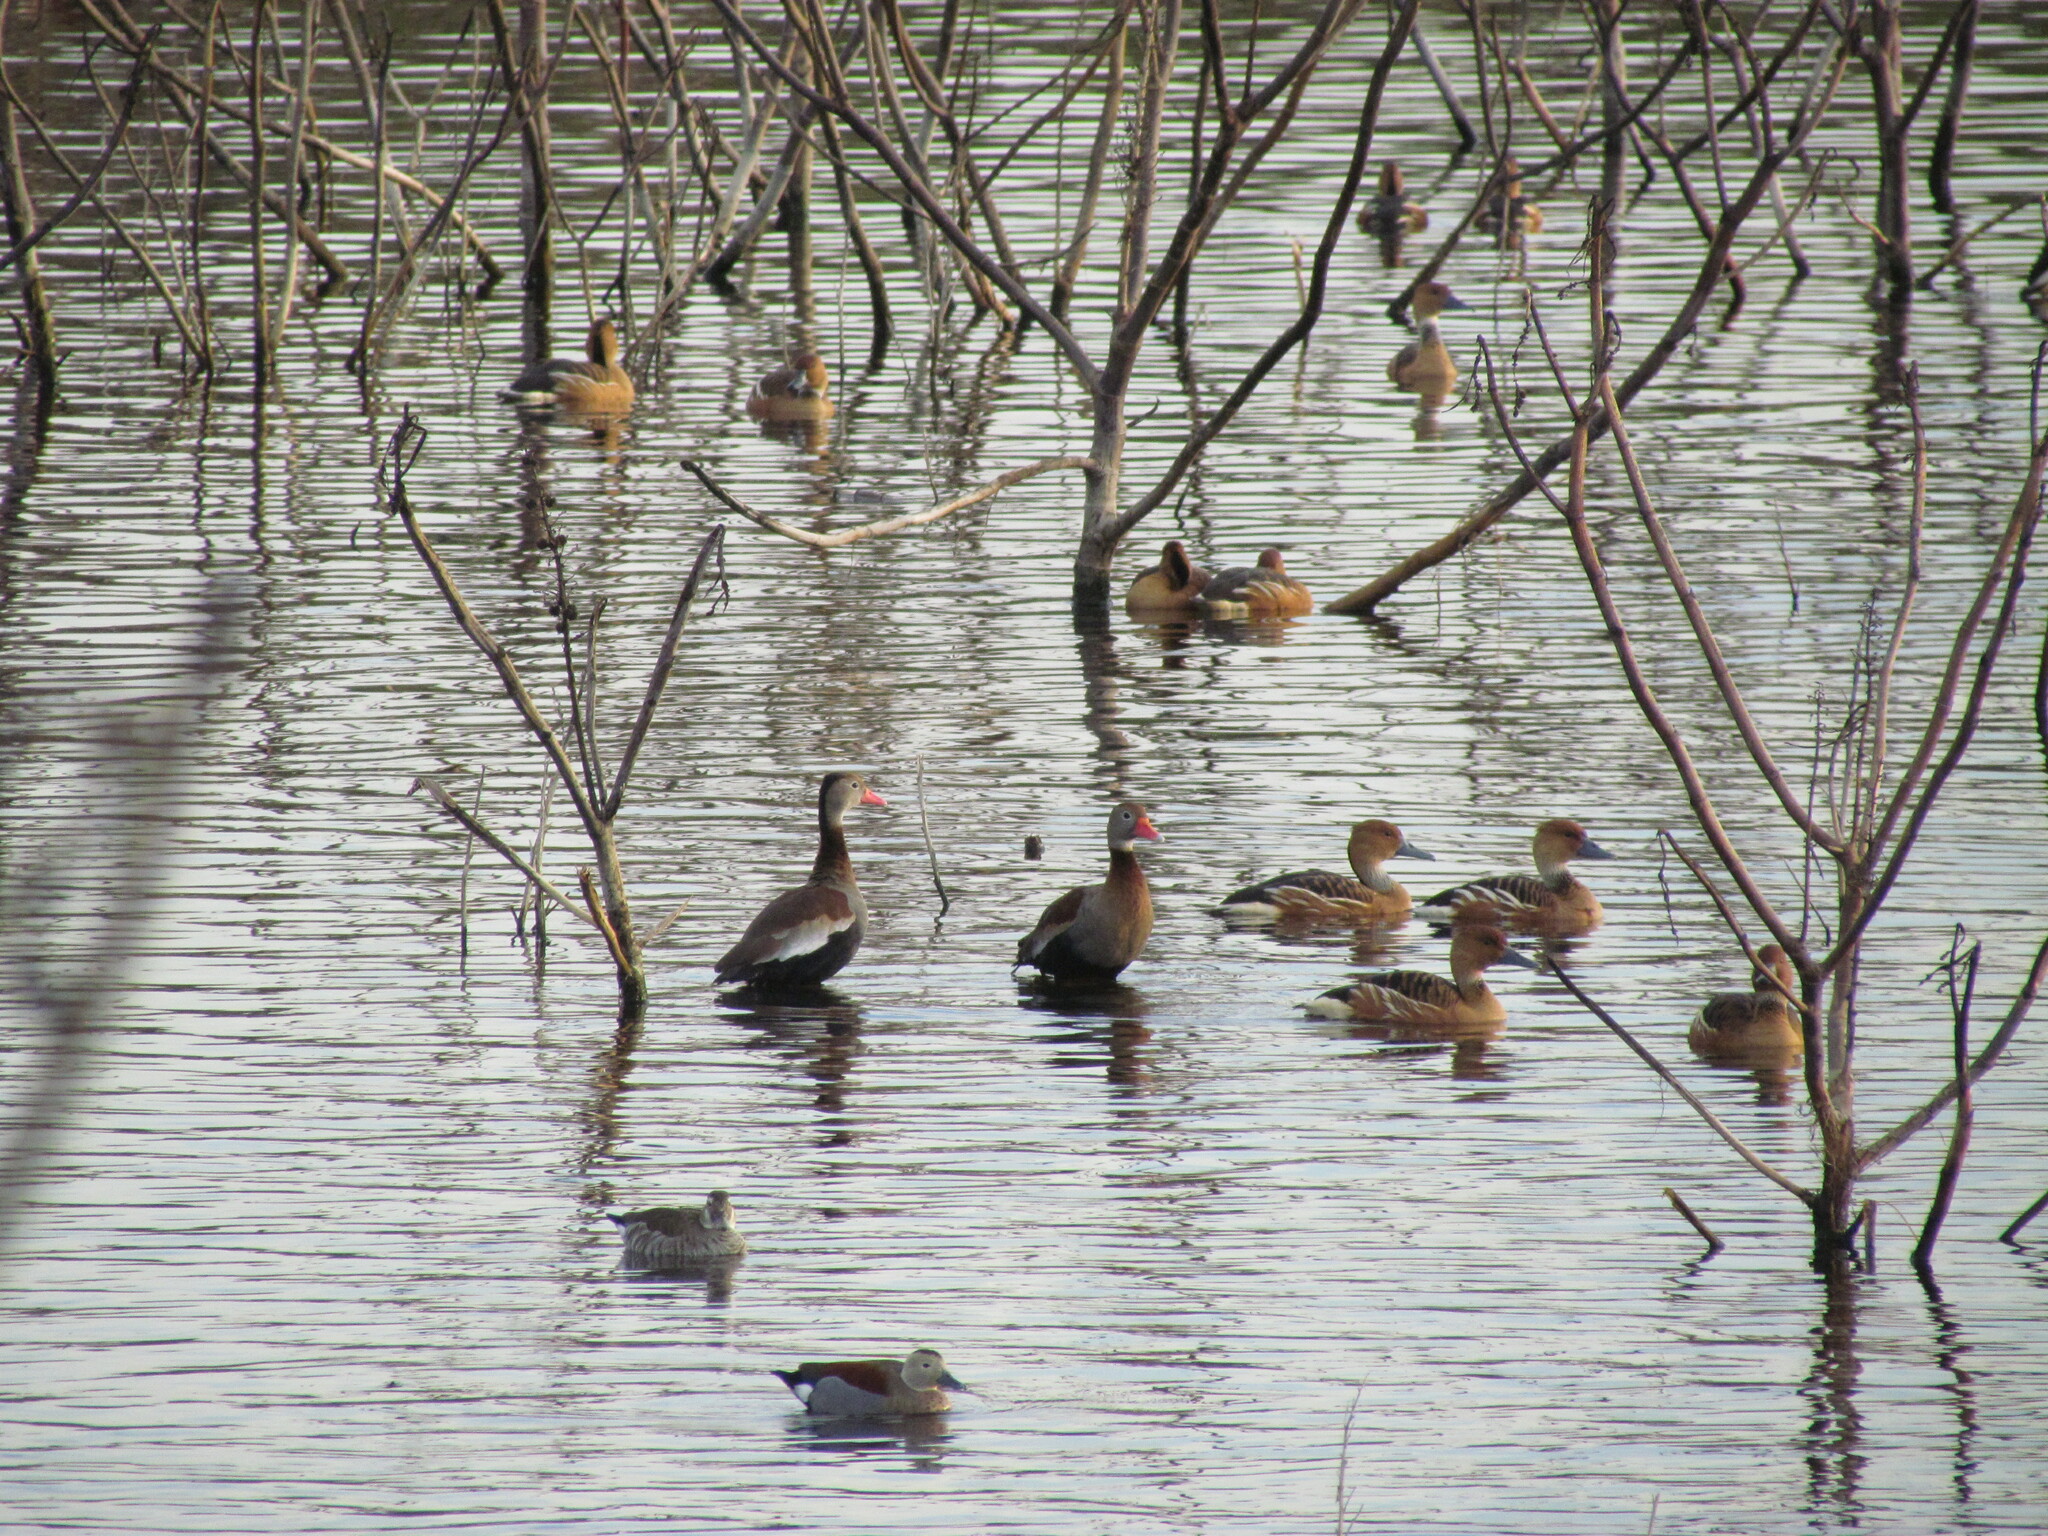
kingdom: Animalia
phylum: Chordata
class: Aves
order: Anseriformes
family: Anatidae
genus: Dendrocygna
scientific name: Dendrocygna autumnalis
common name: Black-bellied whistling duck
